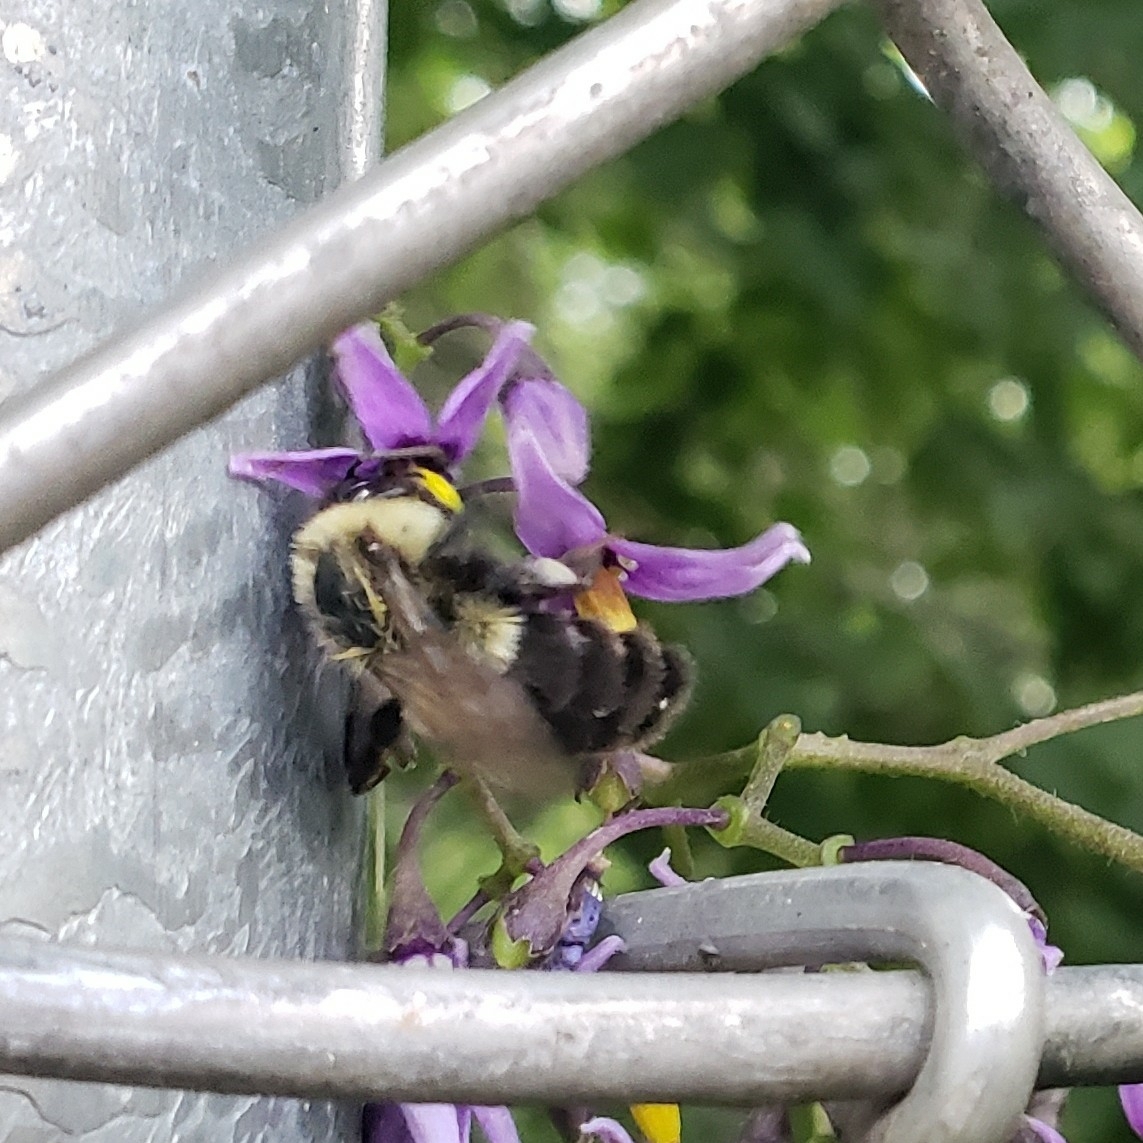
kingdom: Animalia
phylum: Arthropoda
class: Insecta
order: Hymenoptera
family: Apidae
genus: Bombus
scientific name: Bombus impatiens
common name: Common eastern bumble bee
